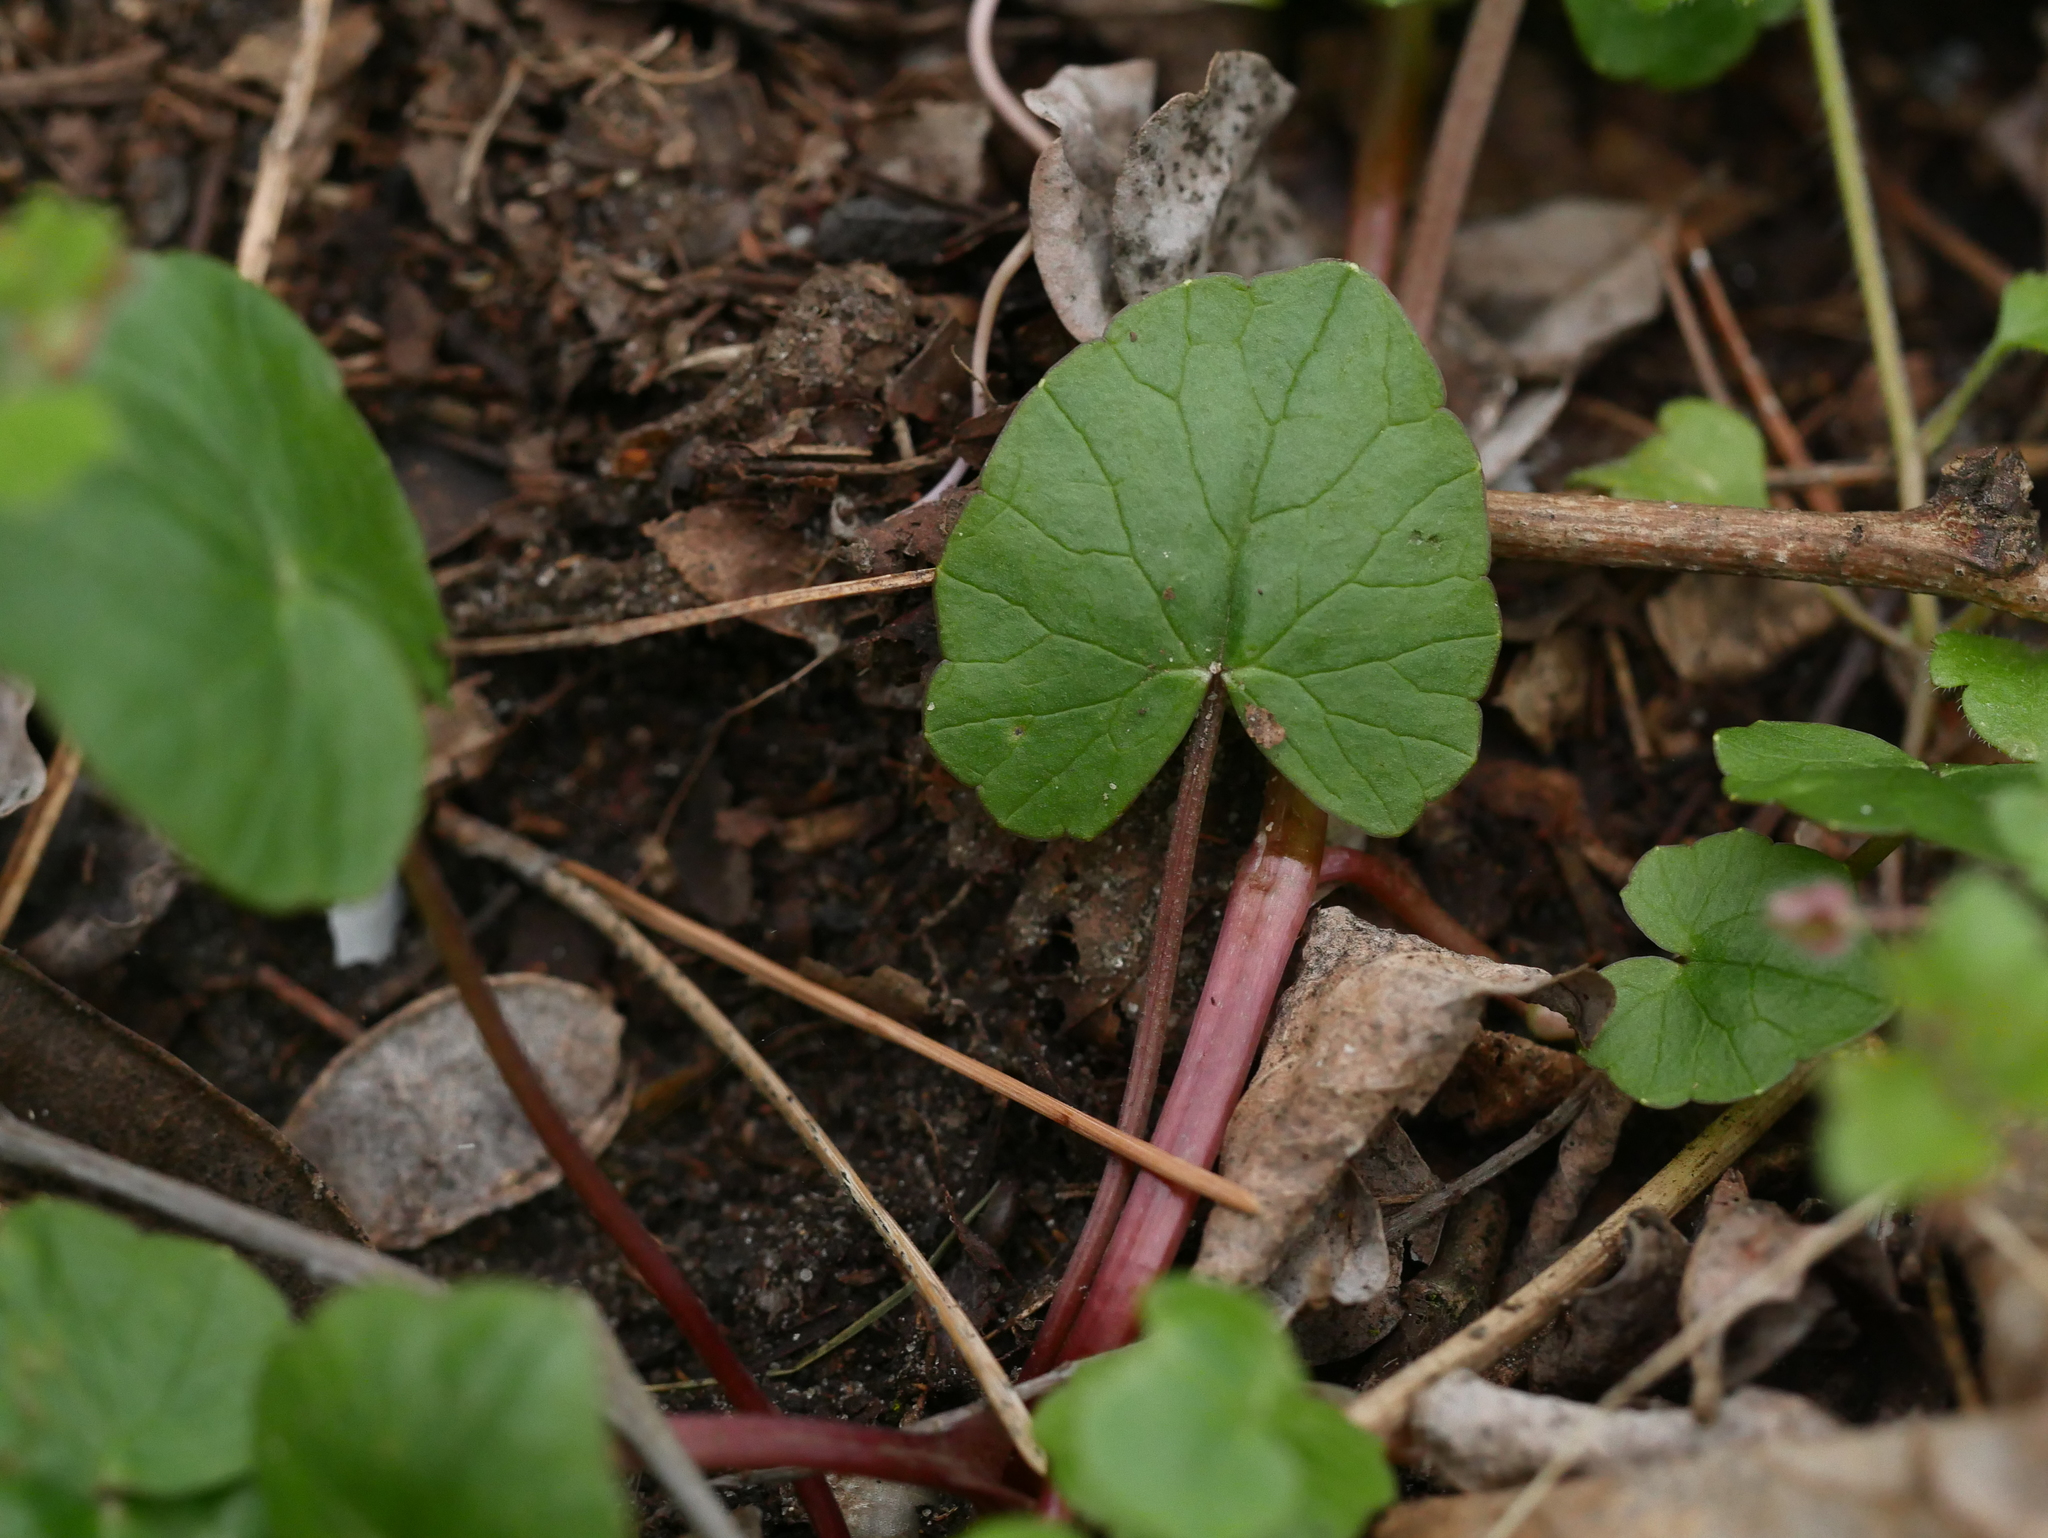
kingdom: Plantae
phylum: Tracheophyta
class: Magnoliopsida
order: Ranunculales
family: Ranunculaceae
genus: Ficaria
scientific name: Ficaria verna
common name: Lesser celandine
